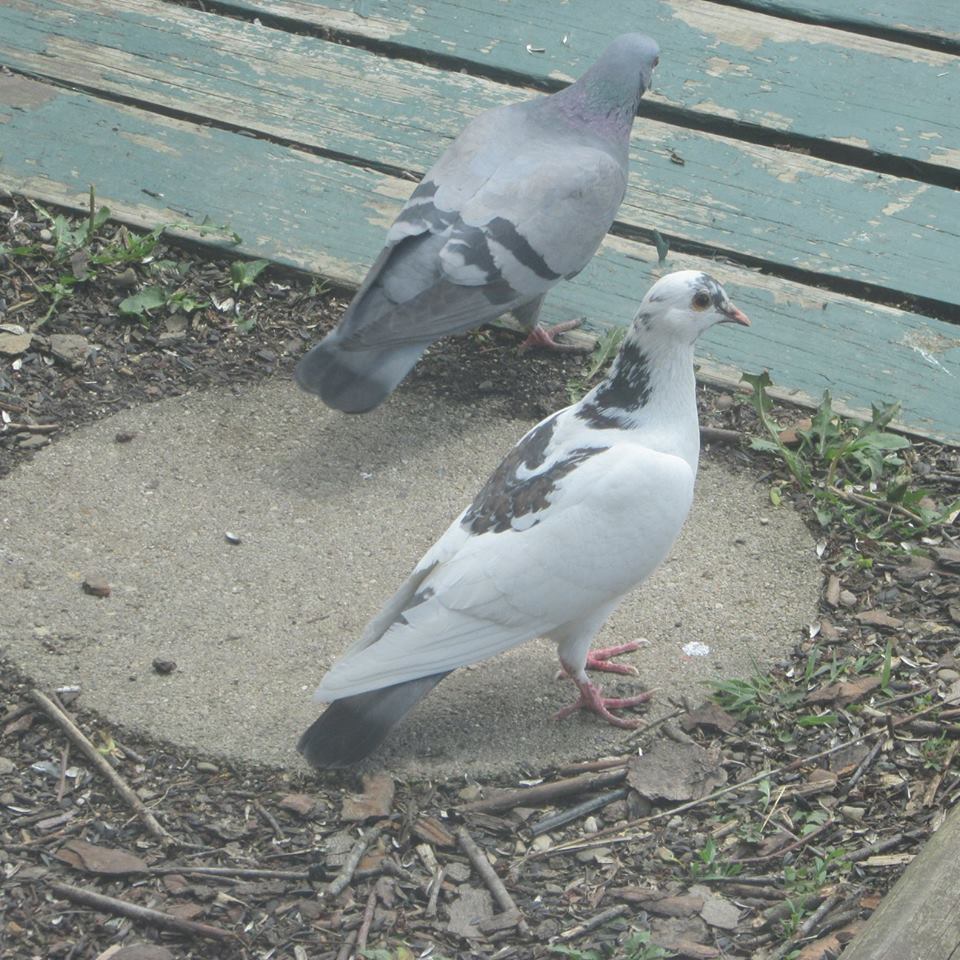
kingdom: Animalia
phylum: Chordata
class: Aves
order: Columbiformes
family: Columbidae
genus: Columba
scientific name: Columba livia
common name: Rock pigeon
